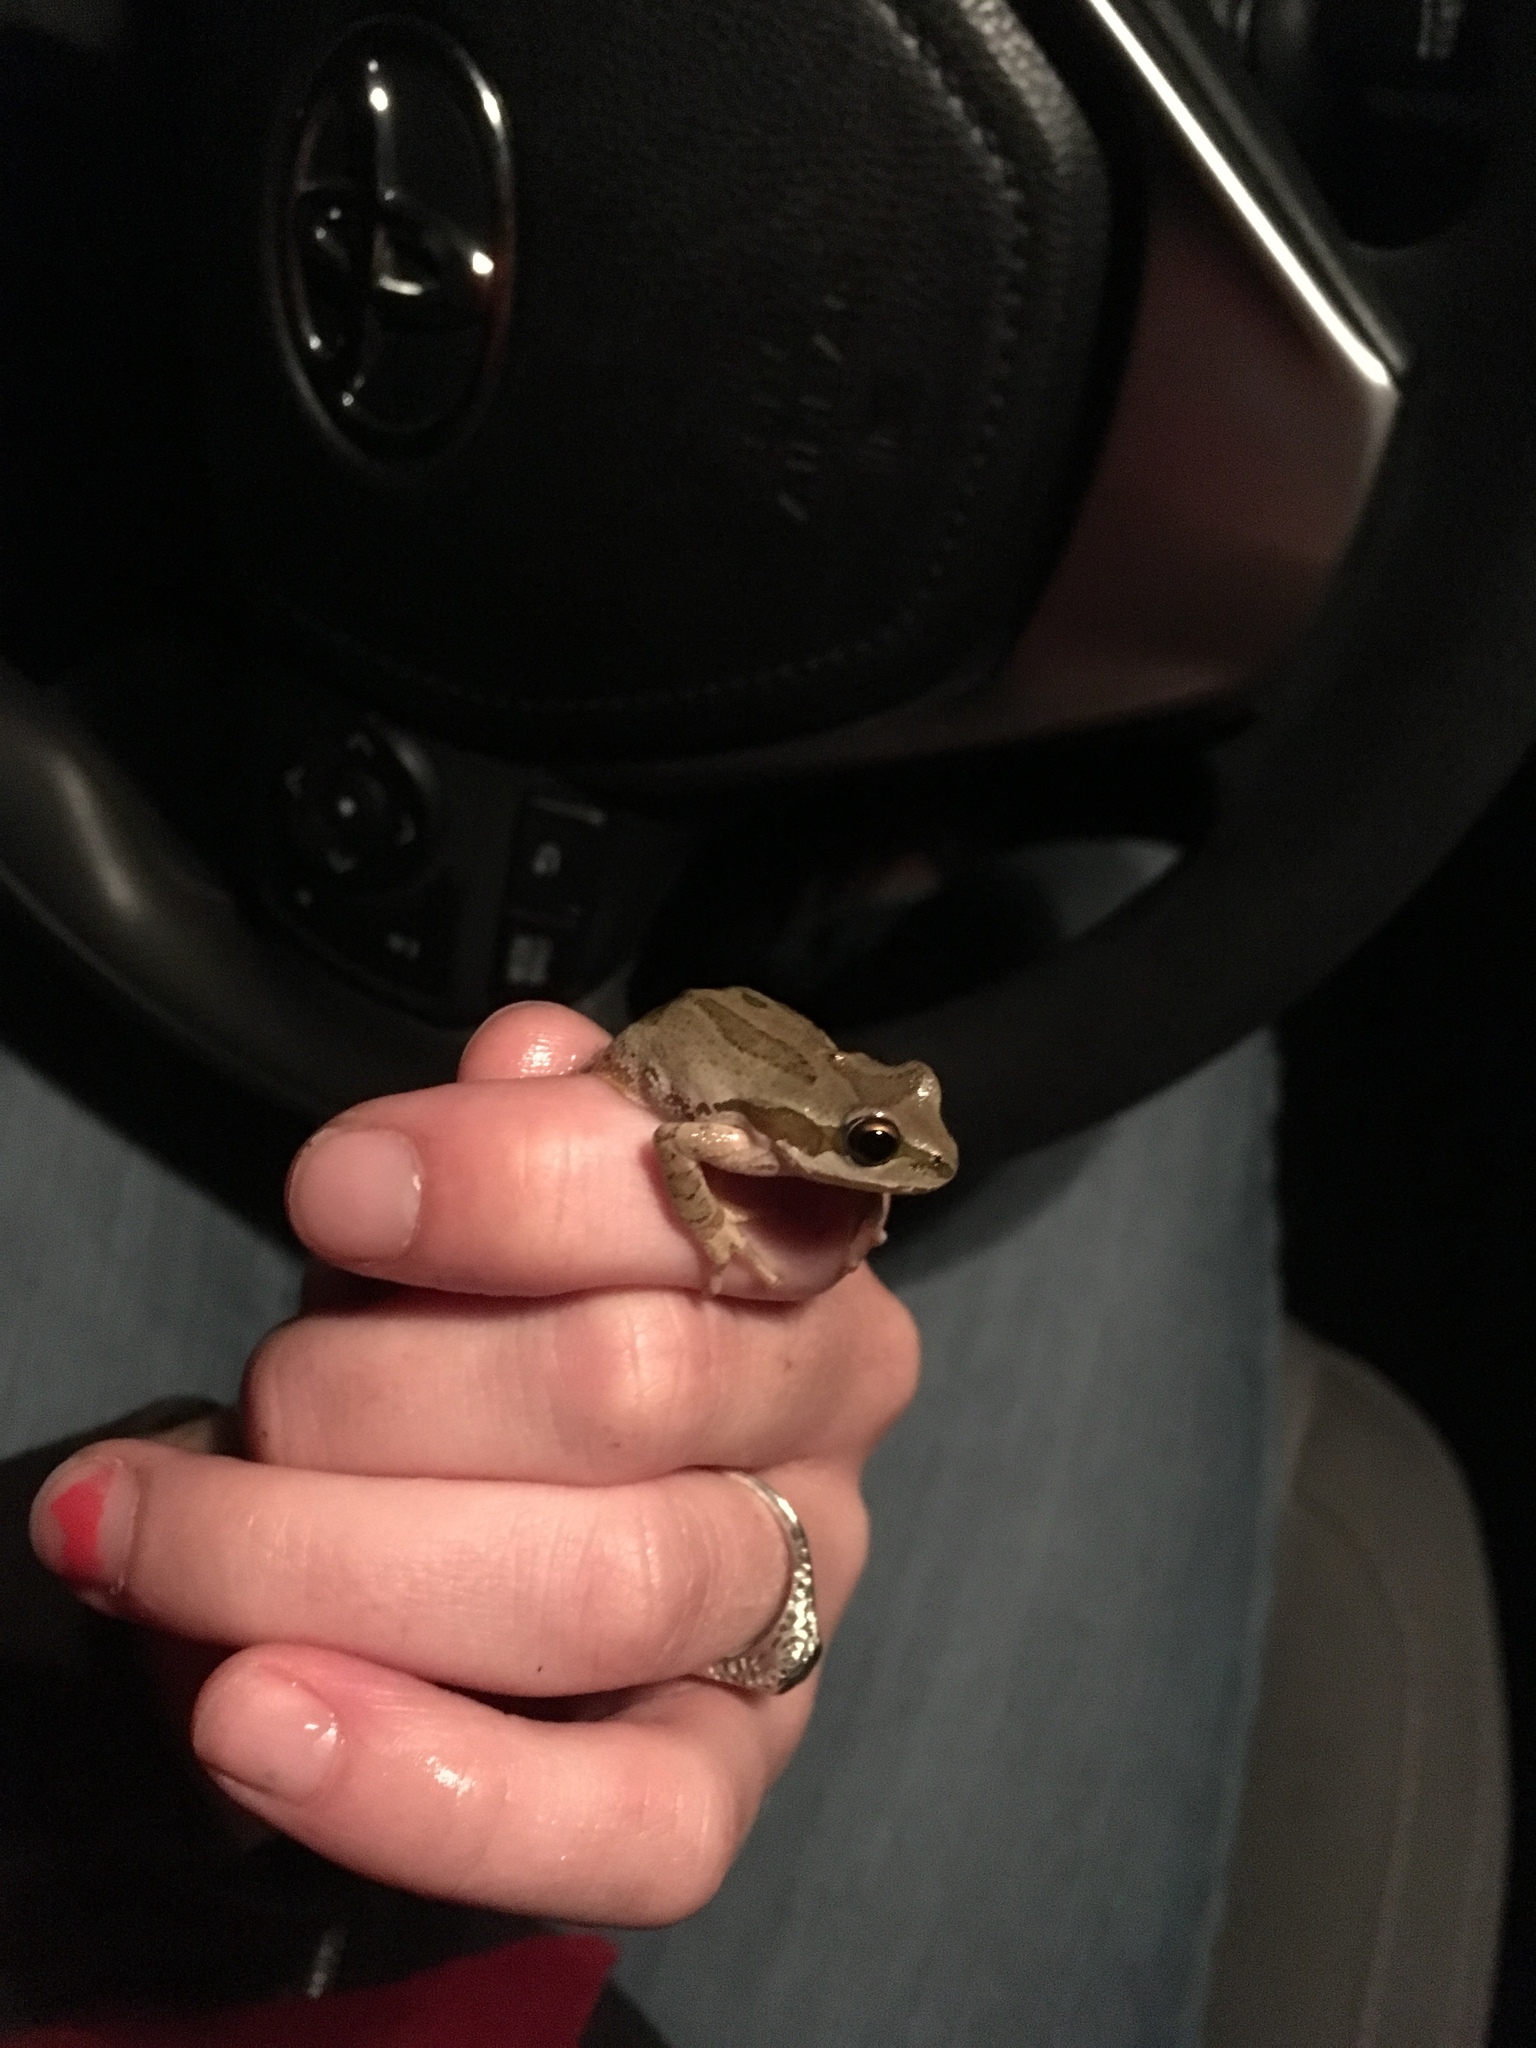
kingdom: Animalia
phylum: Chordata
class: Amphibia
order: Anura
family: Hylidae
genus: Pseudacris
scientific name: Pseudacris regilla
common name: Pacific chorus frog
